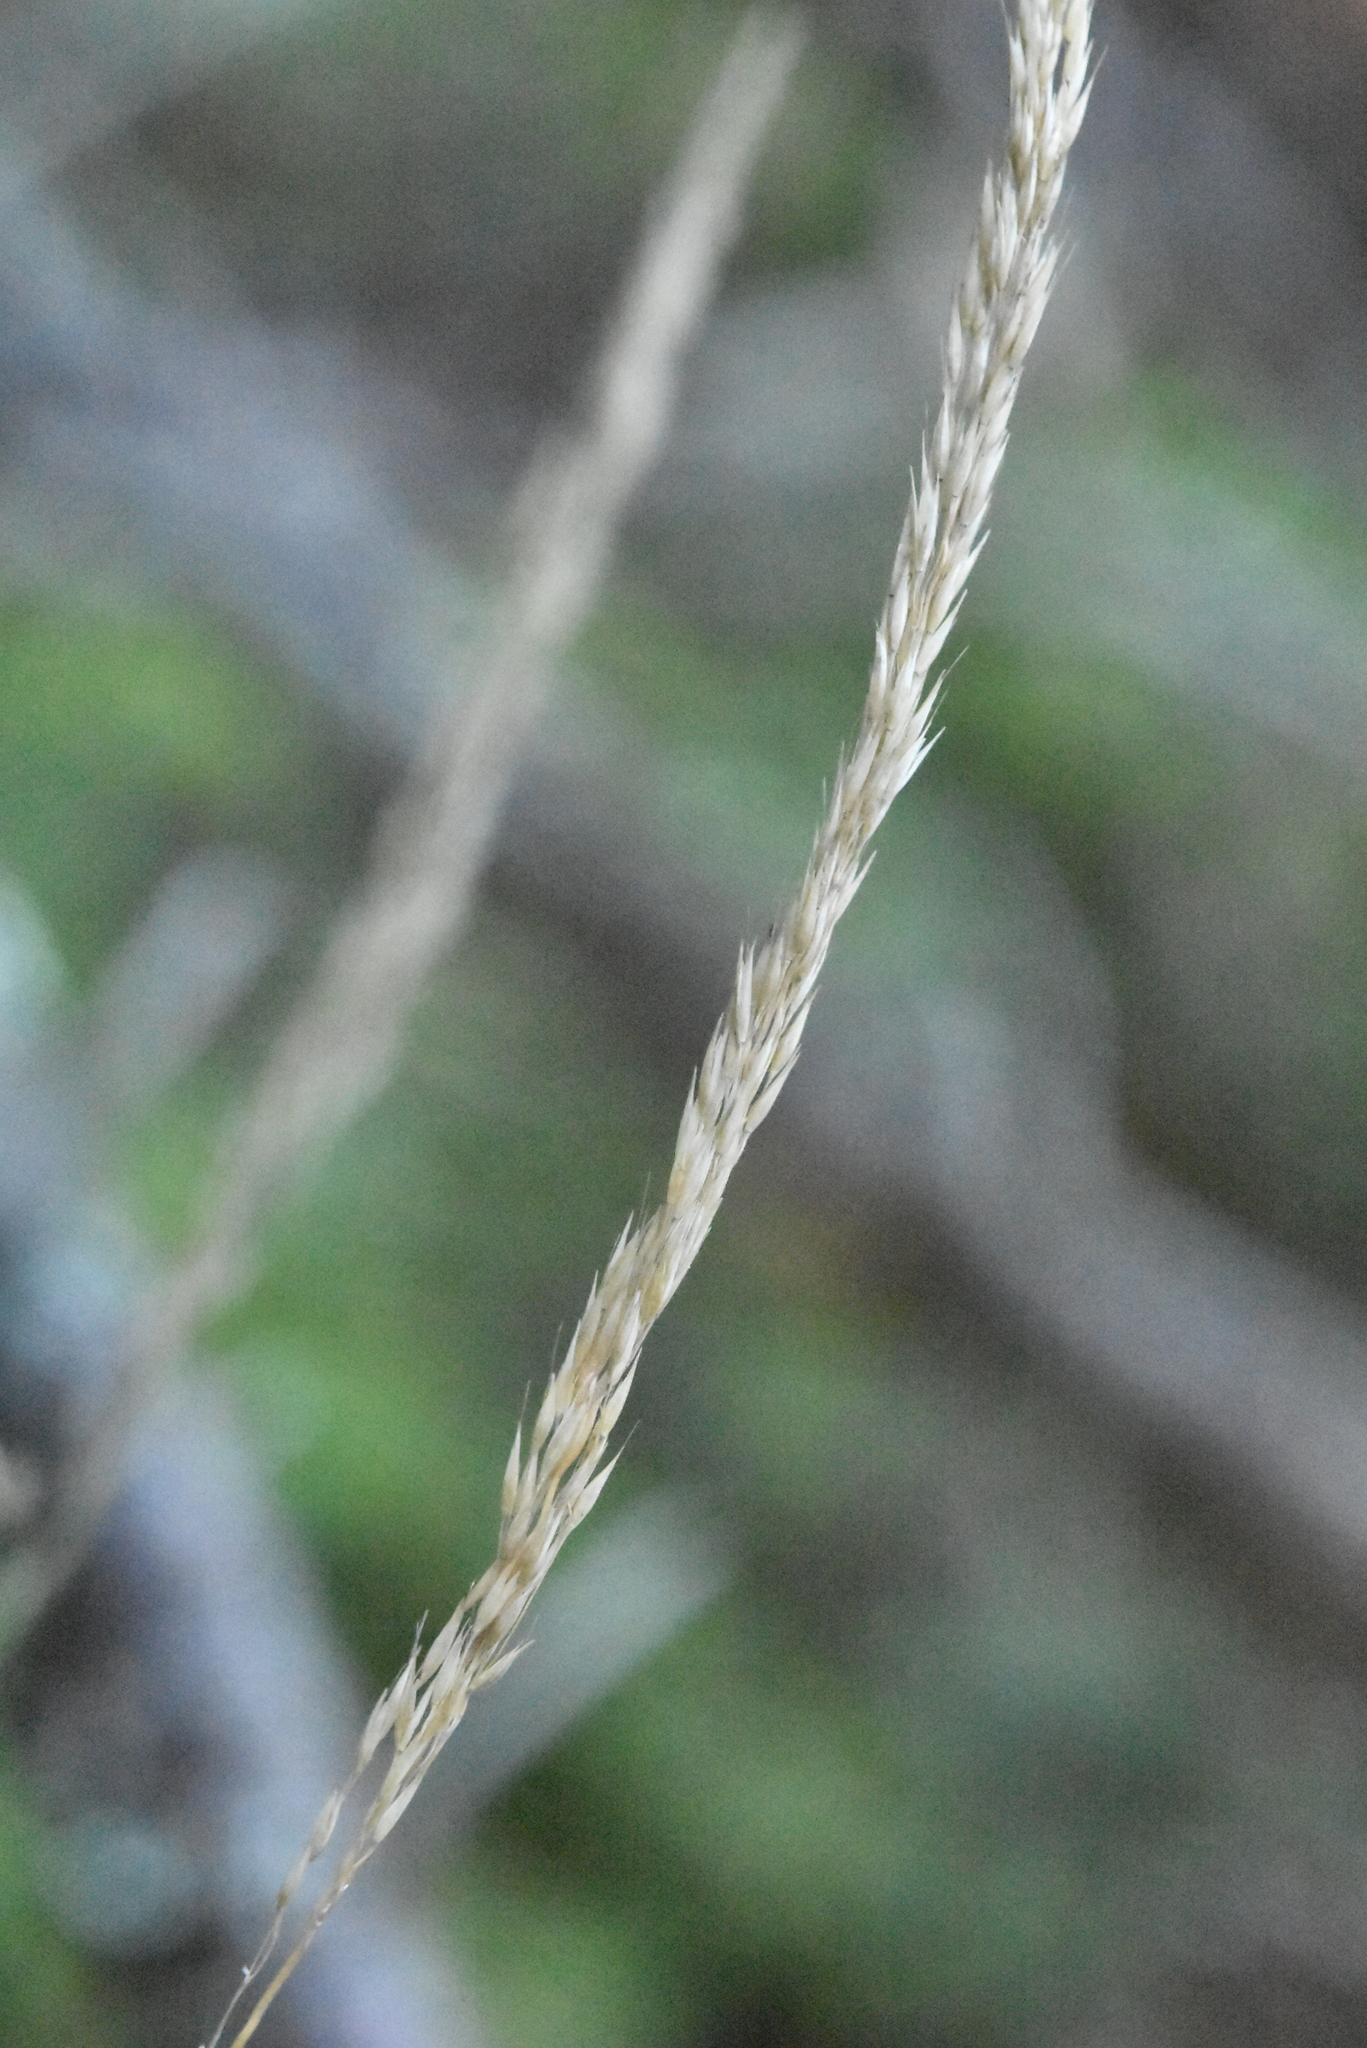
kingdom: Plantae
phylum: Tracheophyta
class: Liliopsida
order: Poales
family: Poaceae
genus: Calamagrostis
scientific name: Calamagrostis arundinacea
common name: Metskastik
